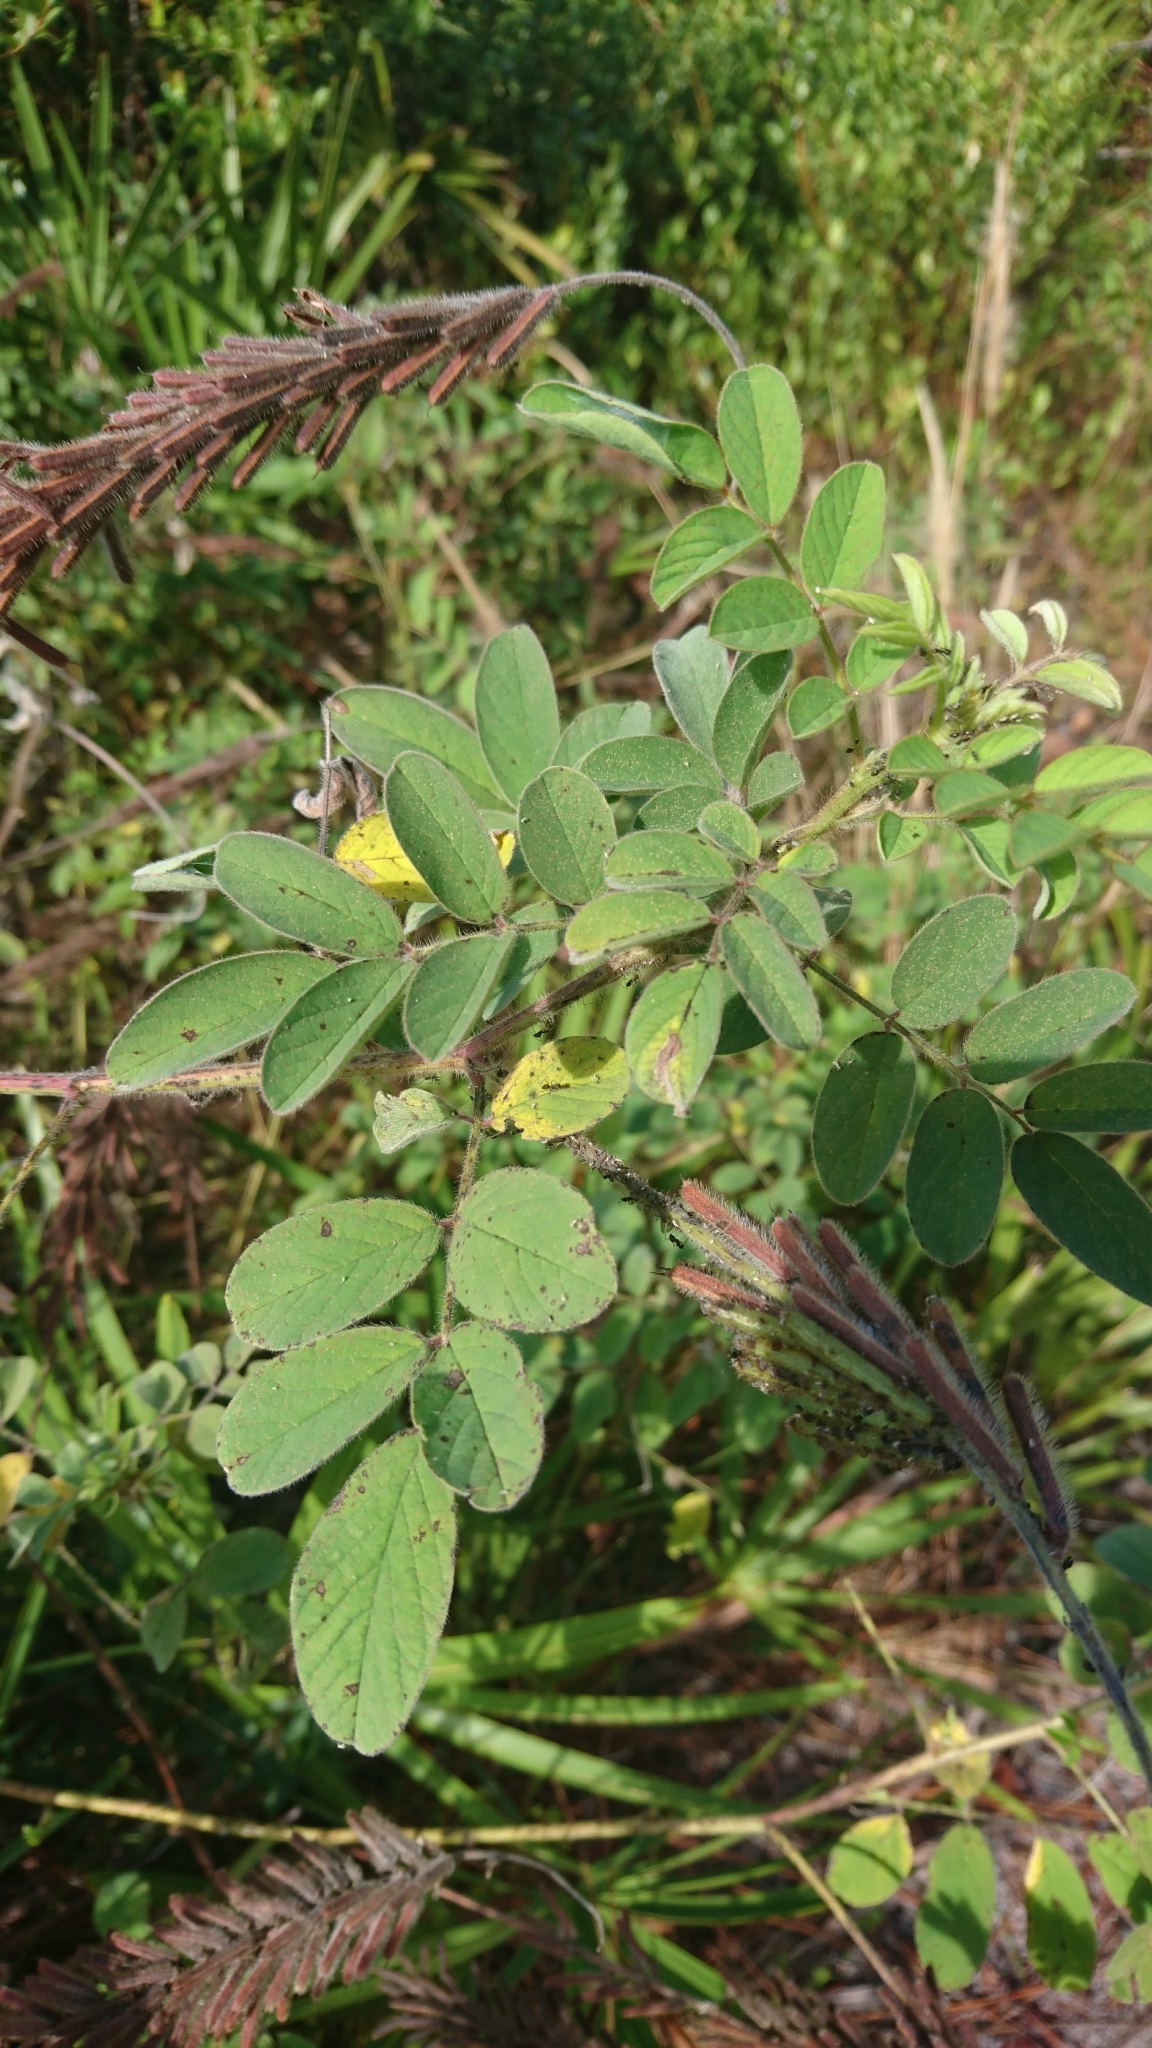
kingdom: Plantae
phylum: Tracheophyta
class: Magnoliopsida
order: Fabales
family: Fabaceae
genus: Indigofera
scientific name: Indigofera hirsuta
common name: Hairy indigo
